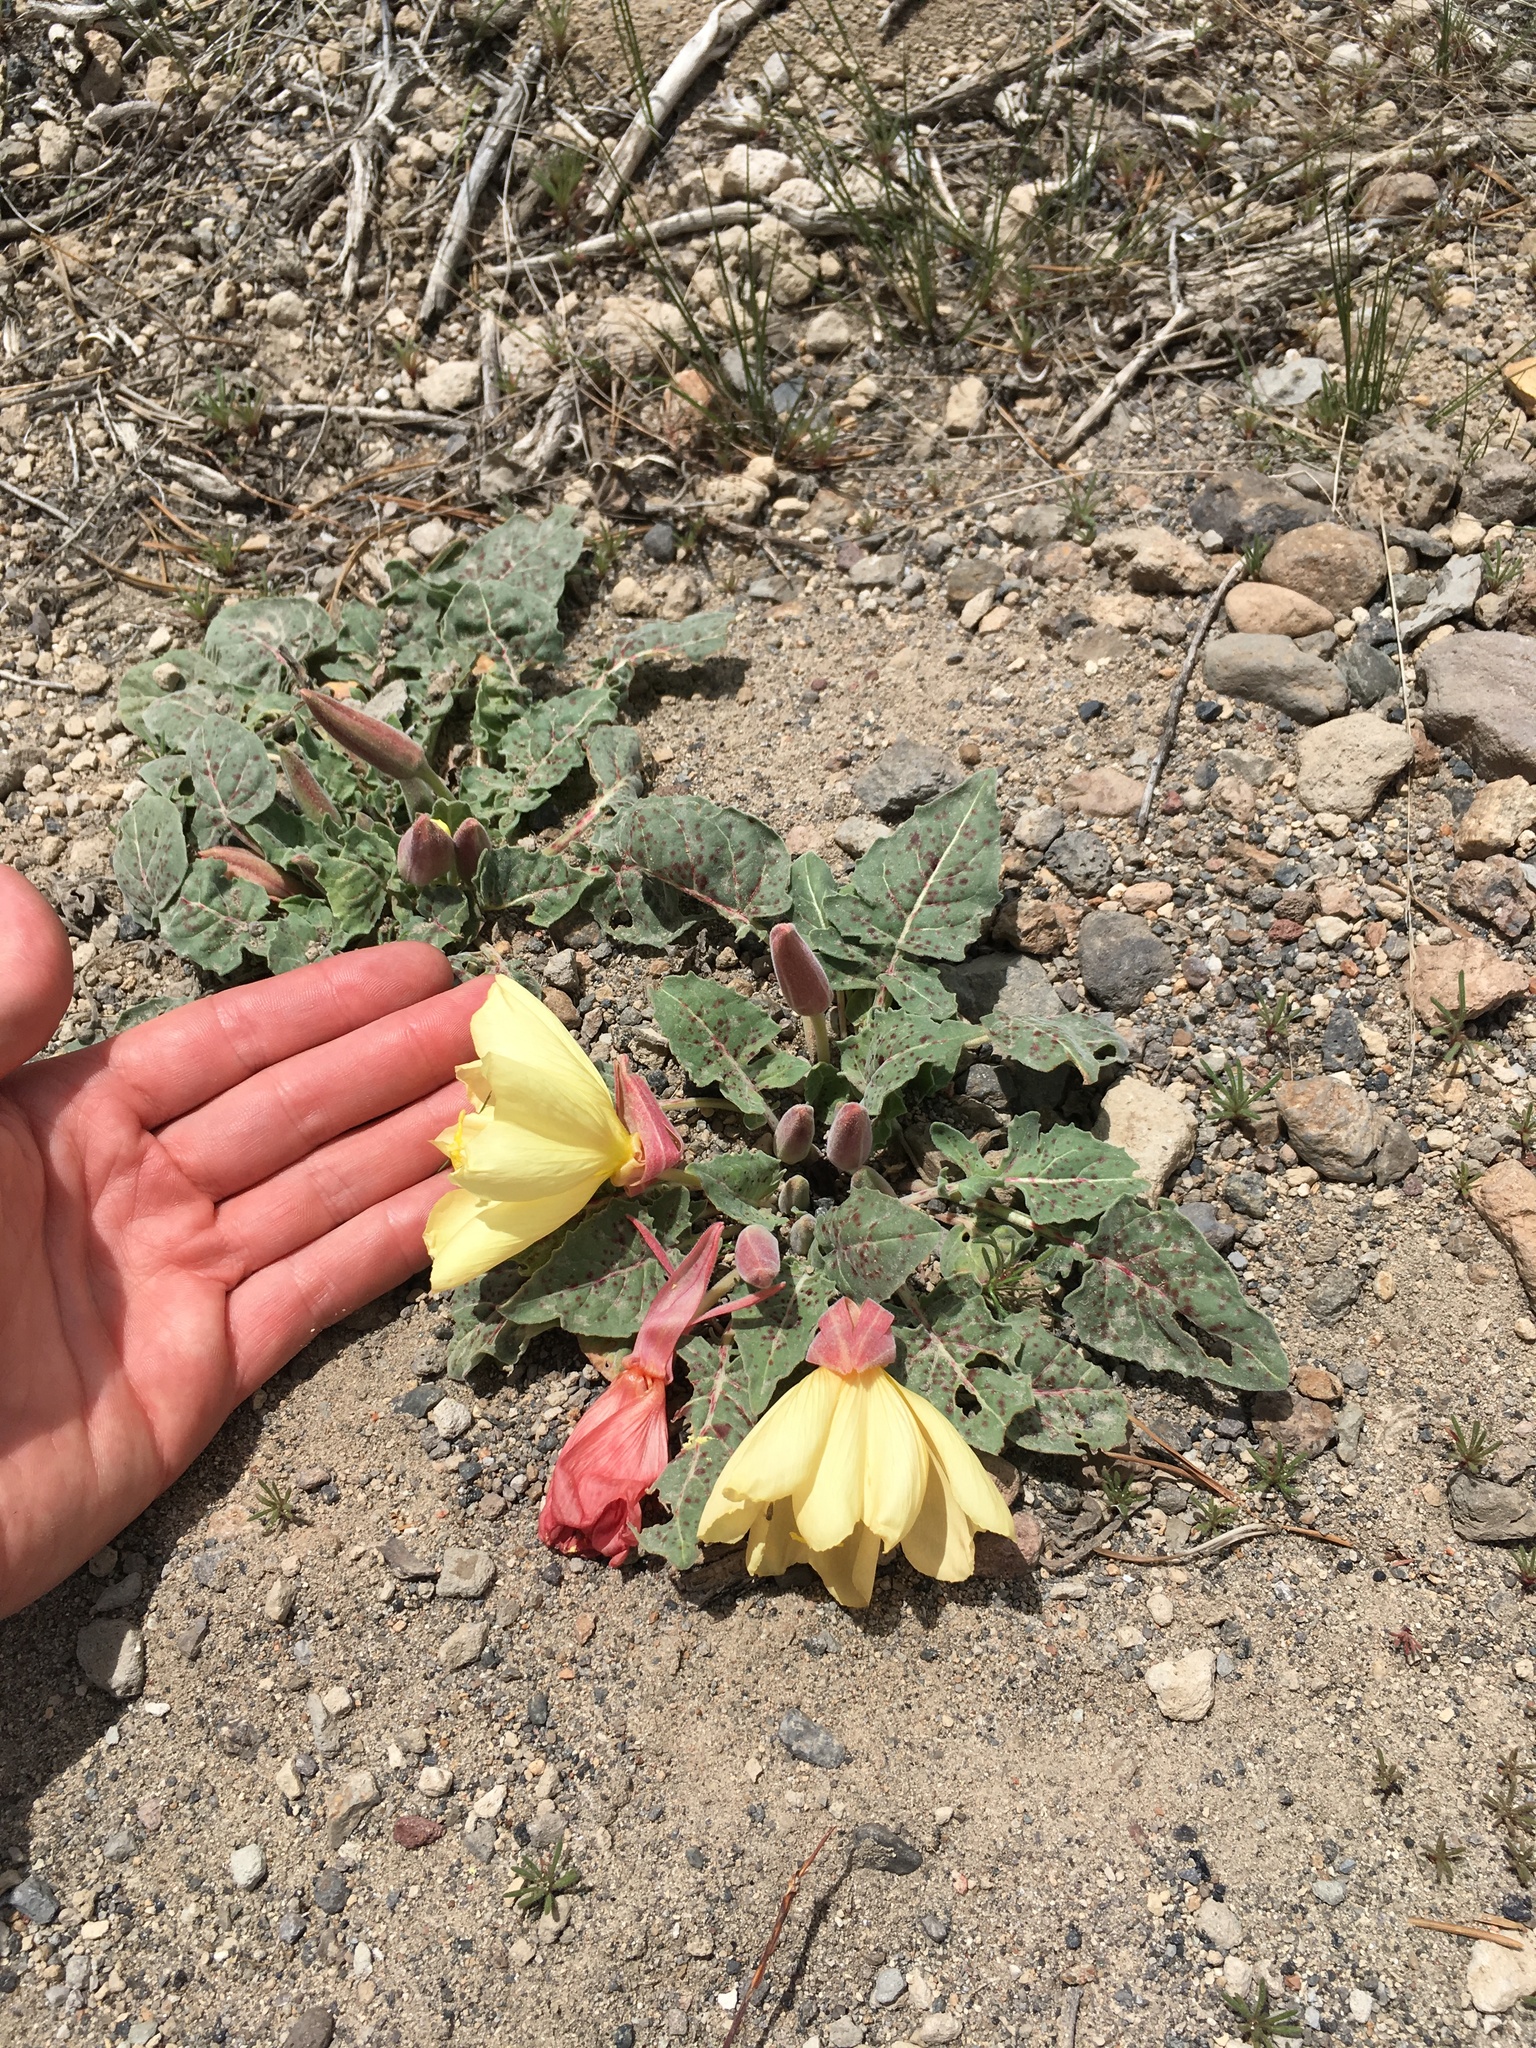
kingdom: Plantae
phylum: Tracheophyta
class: Magnoliopsida
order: Myrtales
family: Onagraceae
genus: Oenothera
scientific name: Oenothera xylocarpa
